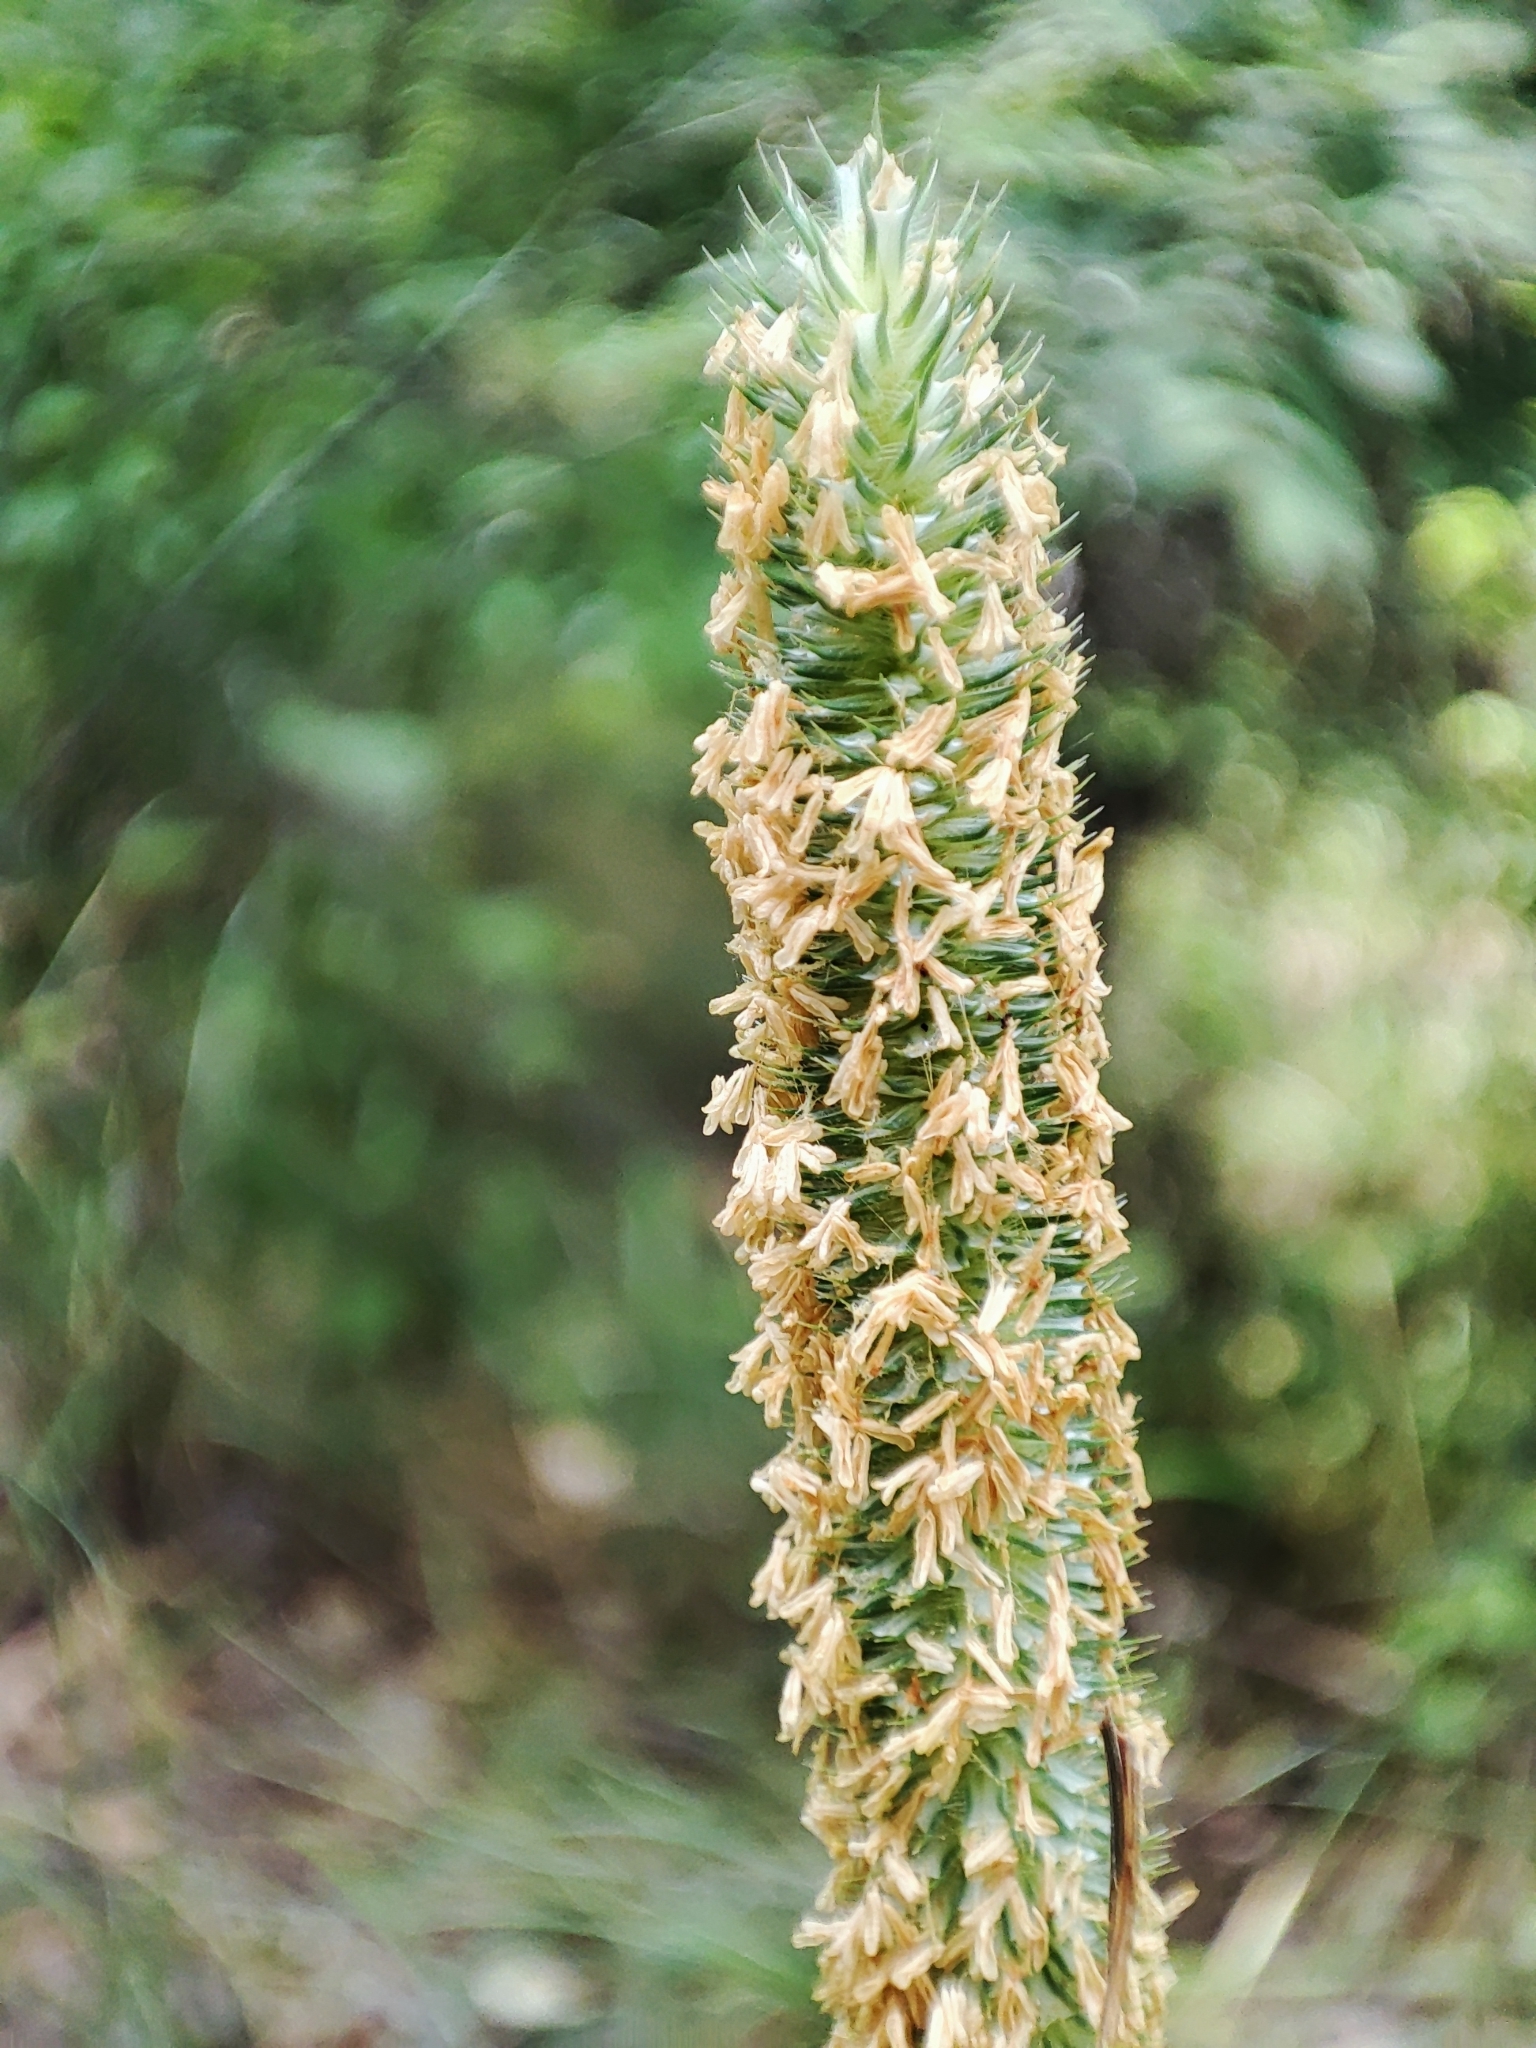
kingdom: Plantae
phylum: Tracheophyta
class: Liliopsida
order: Poales
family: Poaceae
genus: Phleum
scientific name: Phleum pratense
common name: Timothy grass
